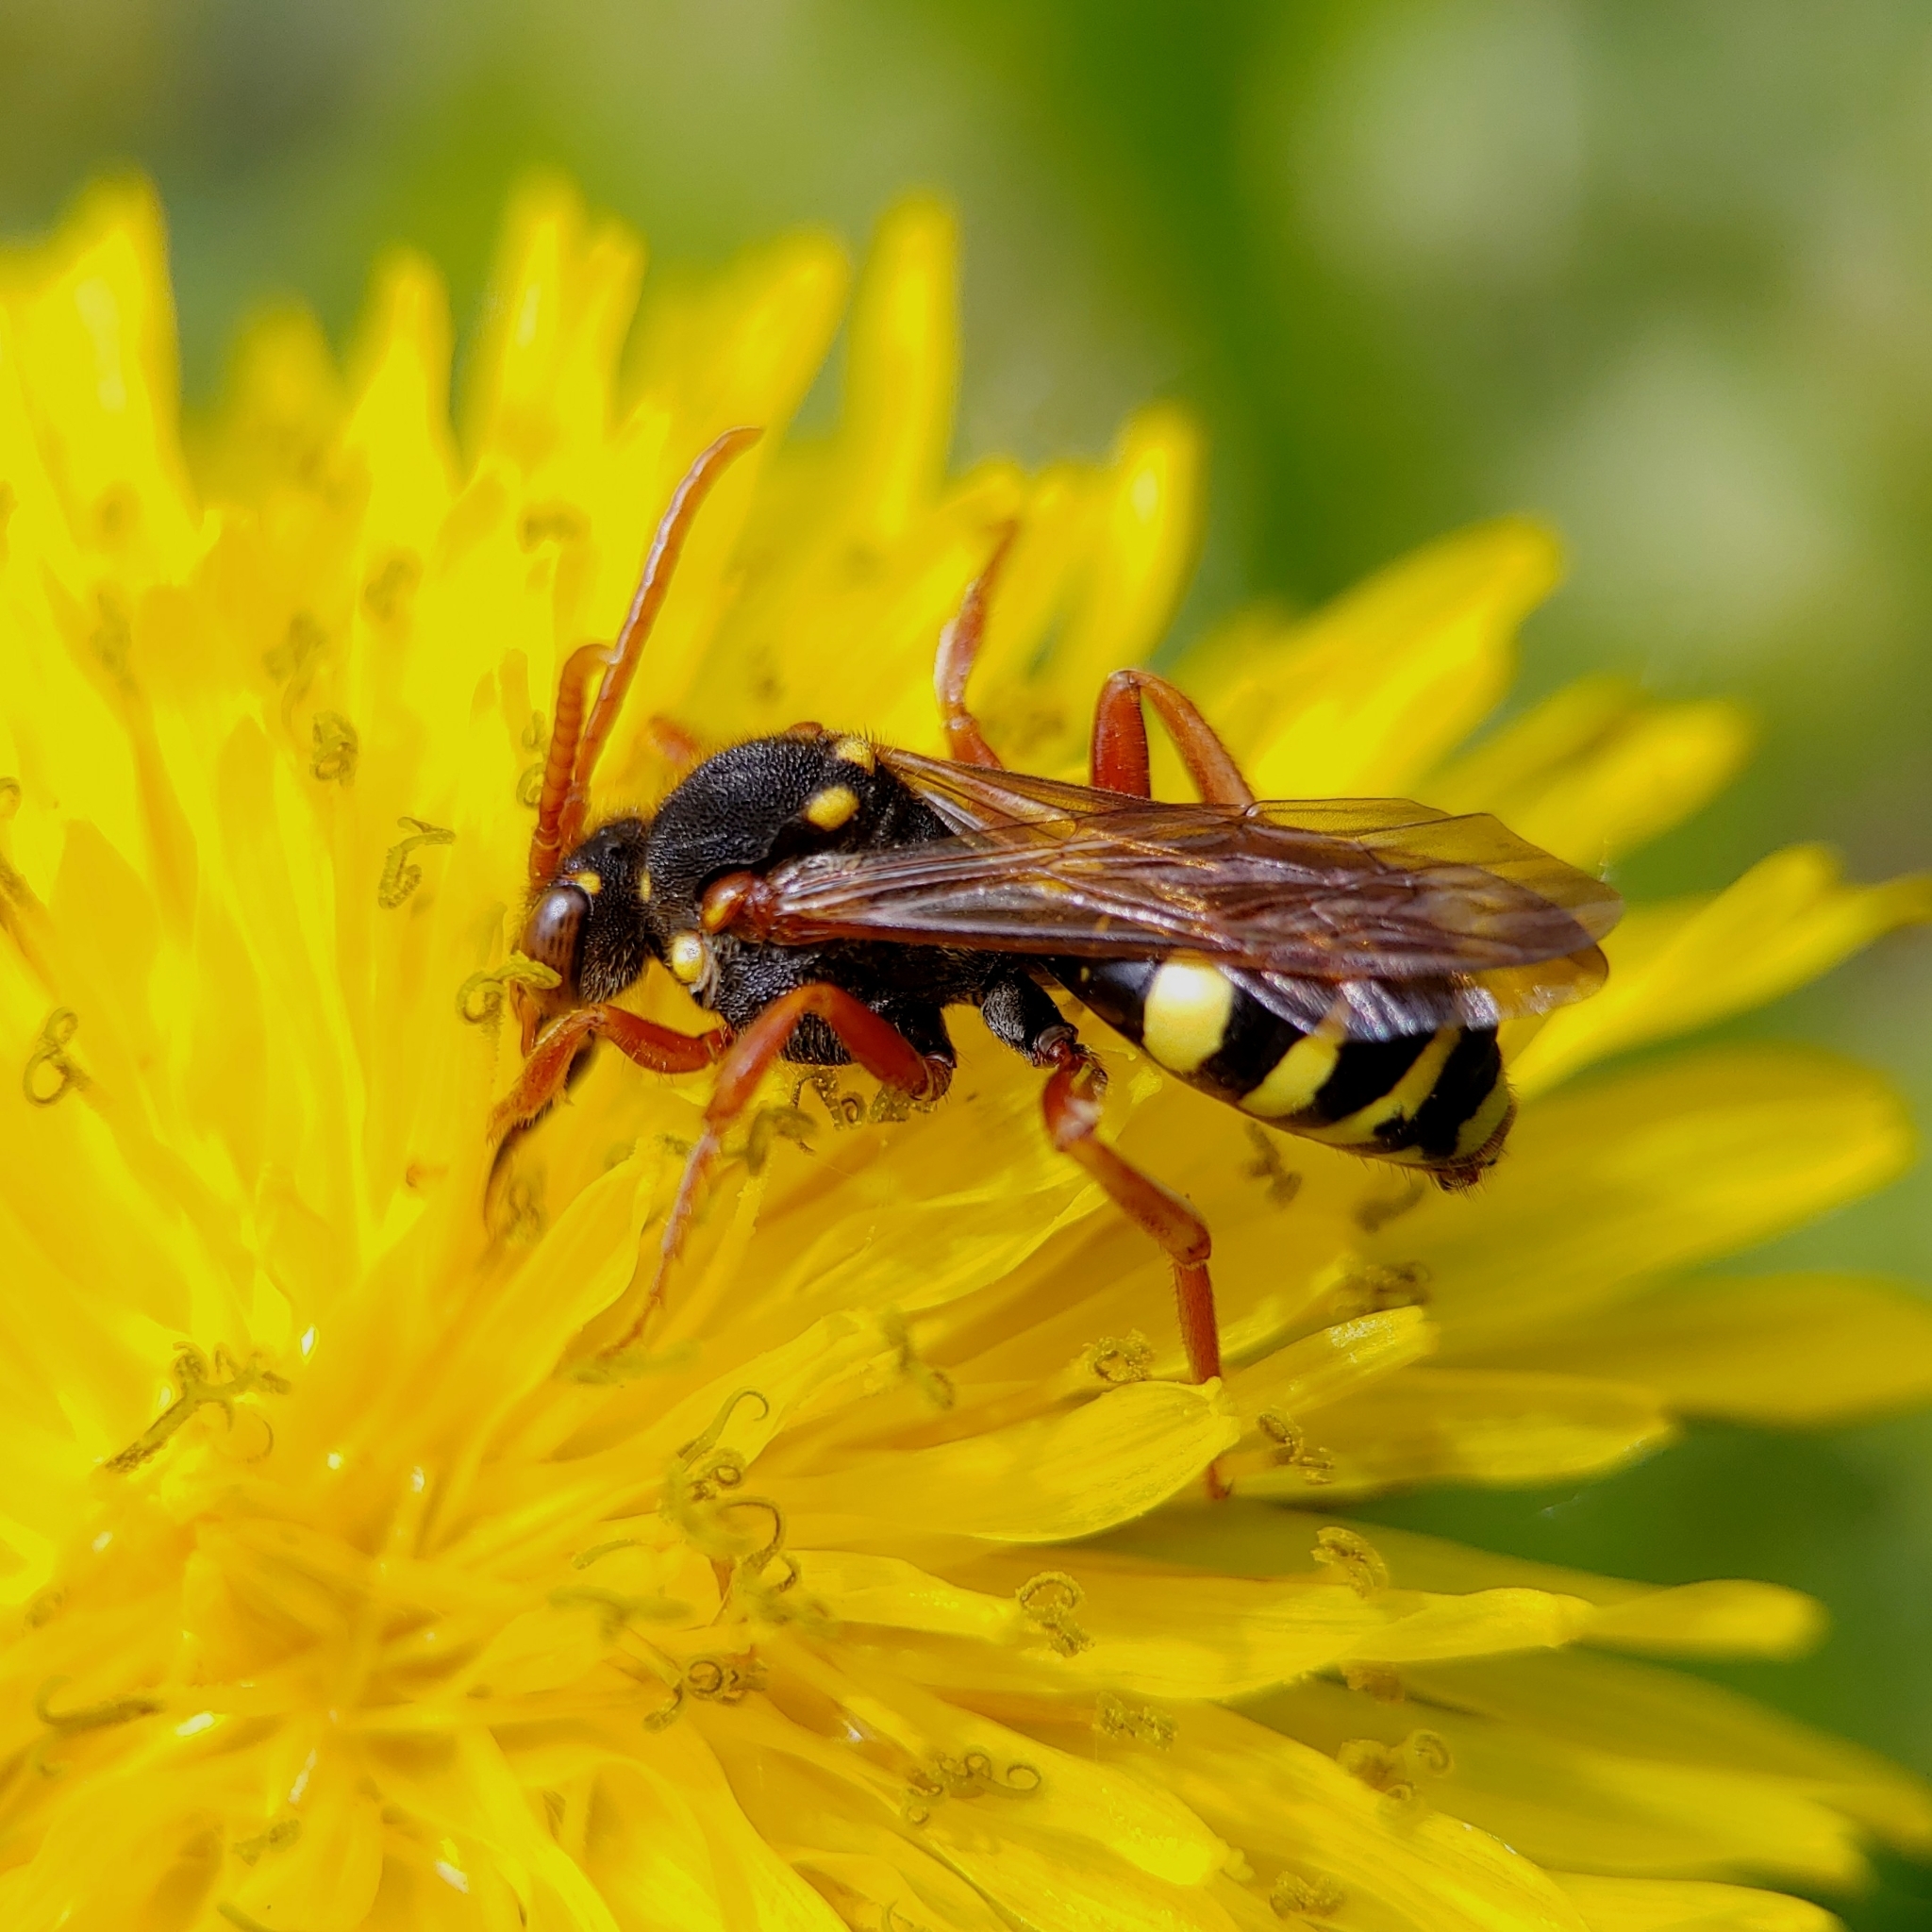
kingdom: Animalia
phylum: Arthropoda
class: Insecta
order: Hymenoptera
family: Apidae
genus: Nomada
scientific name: Nomada marshamella
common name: Marsham's nomad bee
